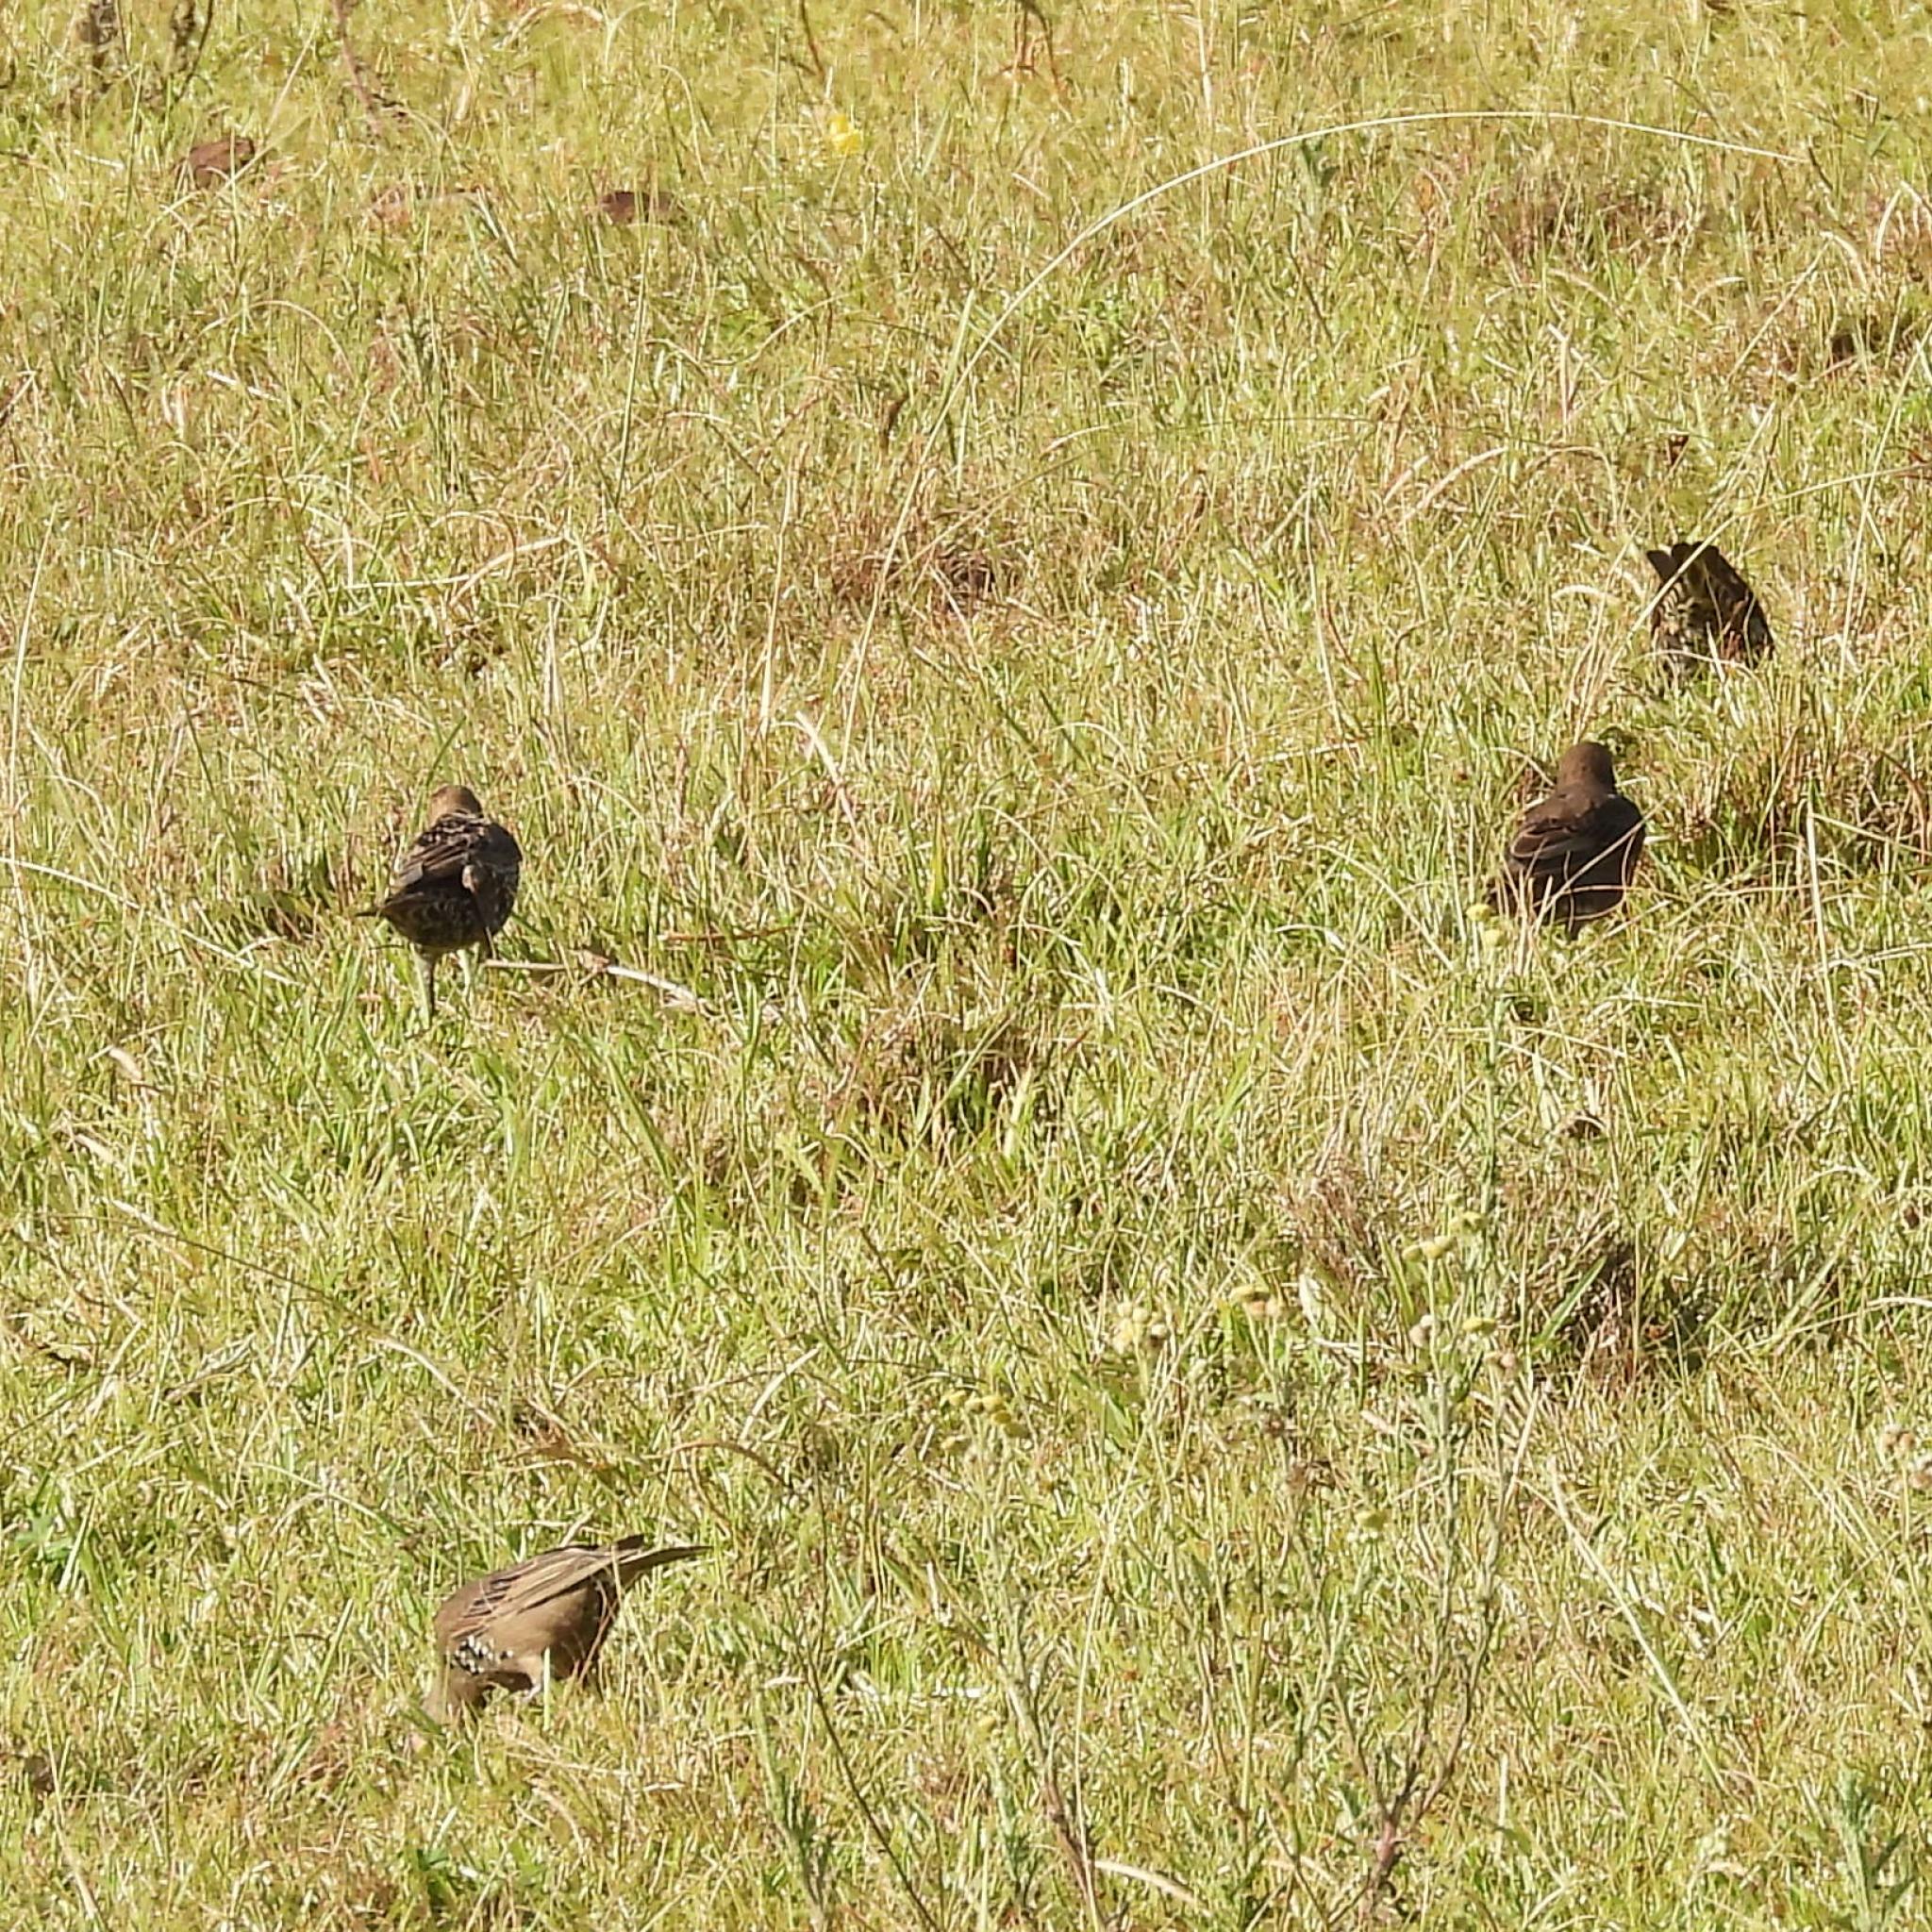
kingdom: Animalia
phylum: Chordata
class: Aves
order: Passeriformes
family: Sturnidae
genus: Sturnus
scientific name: Sturnus vulgaris
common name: Common starling
